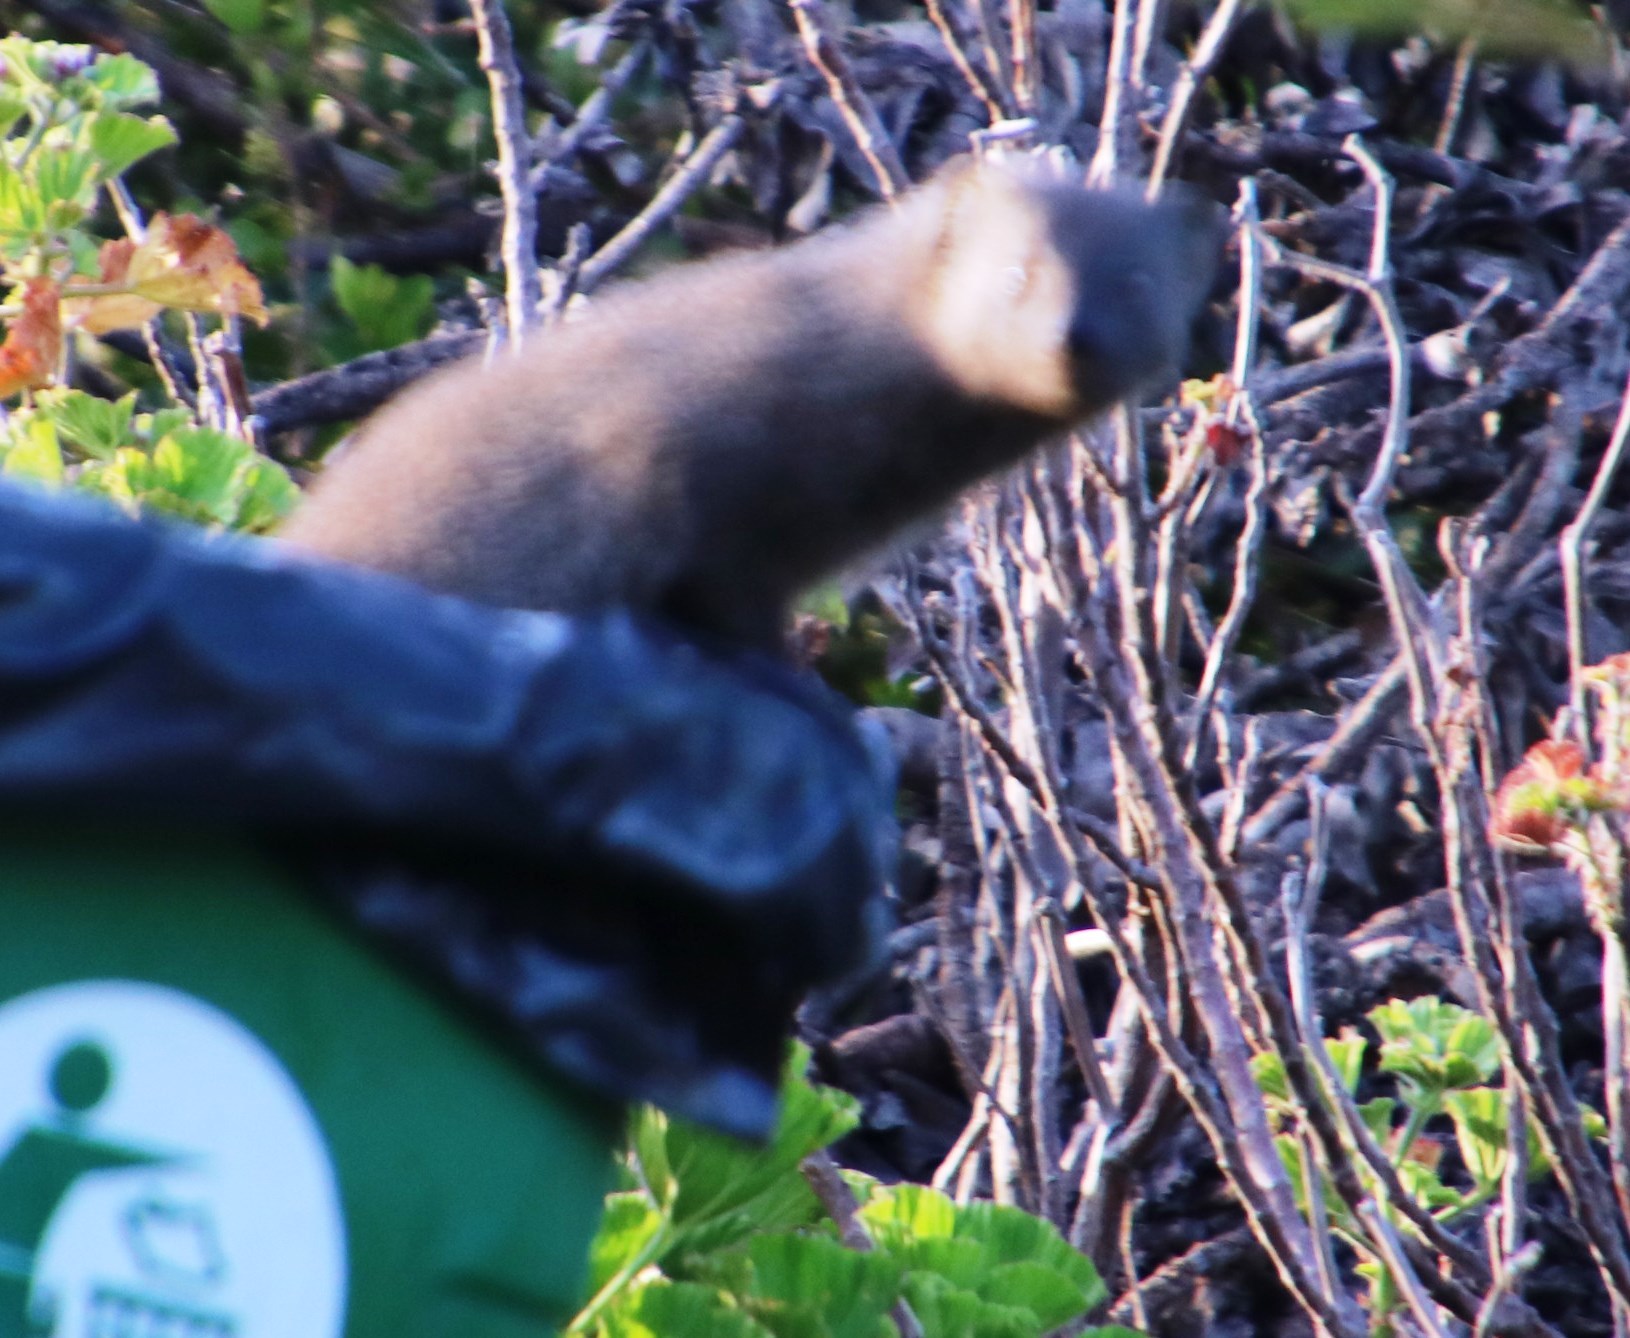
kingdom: Animalia
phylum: Chordata
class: Mammalia
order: Carnivora
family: Herpestidae
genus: Galerella
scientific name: Galerella pulverulenta
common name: Cape gray mongoose
